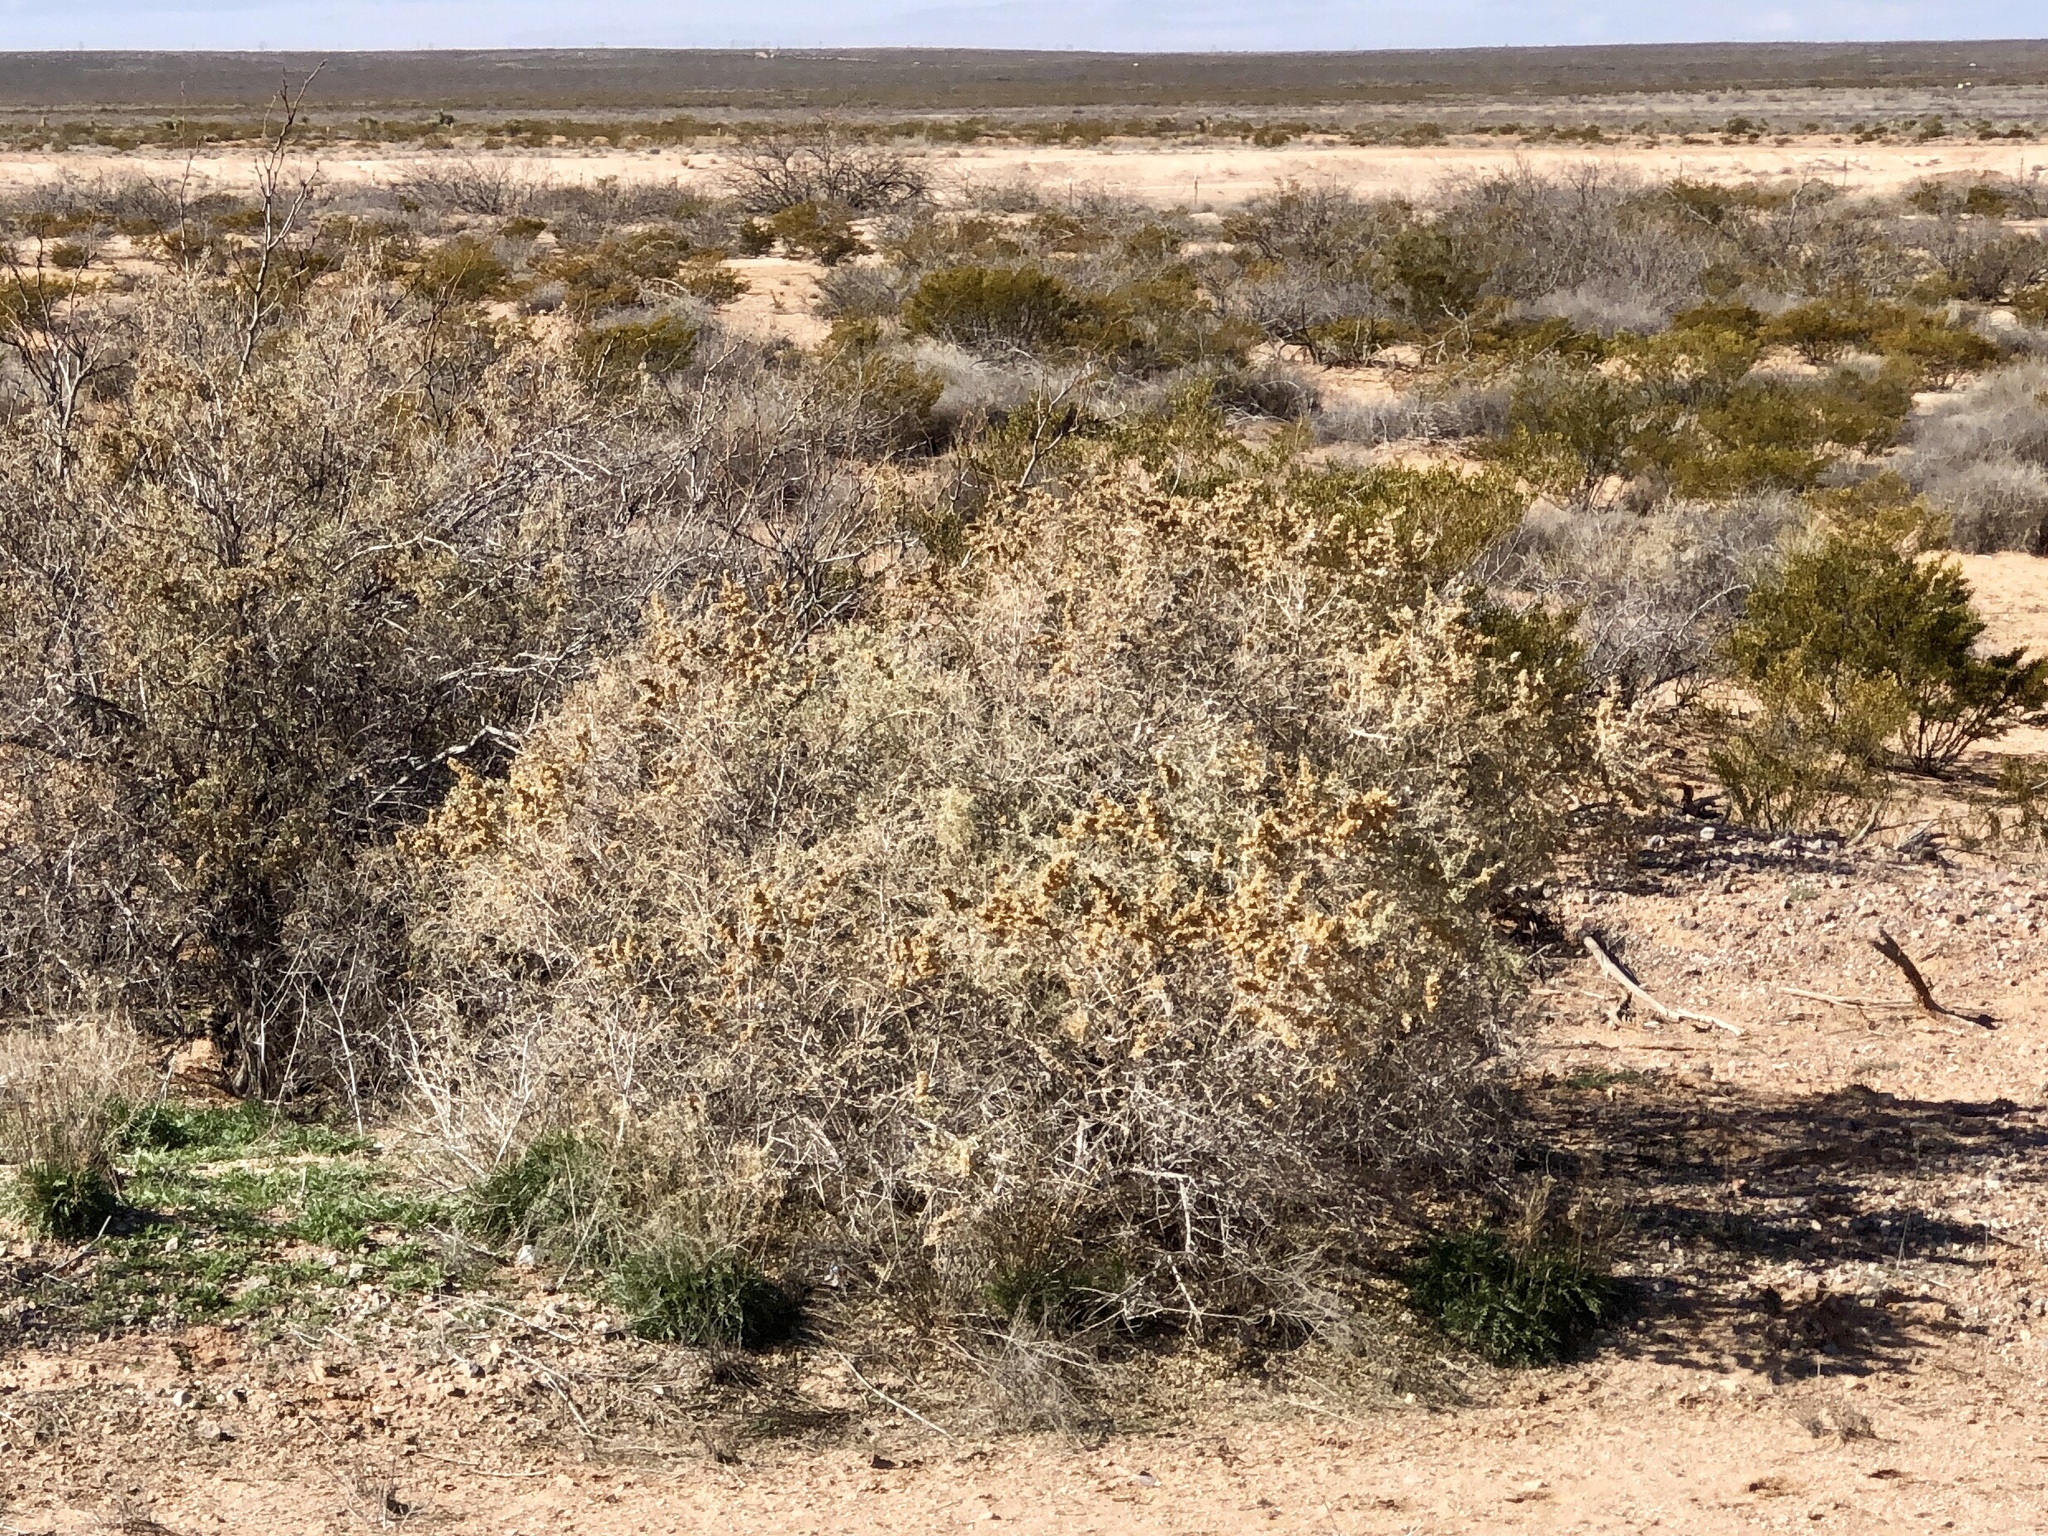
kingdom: Plantae
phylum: Tracheophyta
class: Liliopsida
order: Asparagales
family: Asparagaceae
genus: Yucca
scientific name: Yucca elata
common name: Palmella
